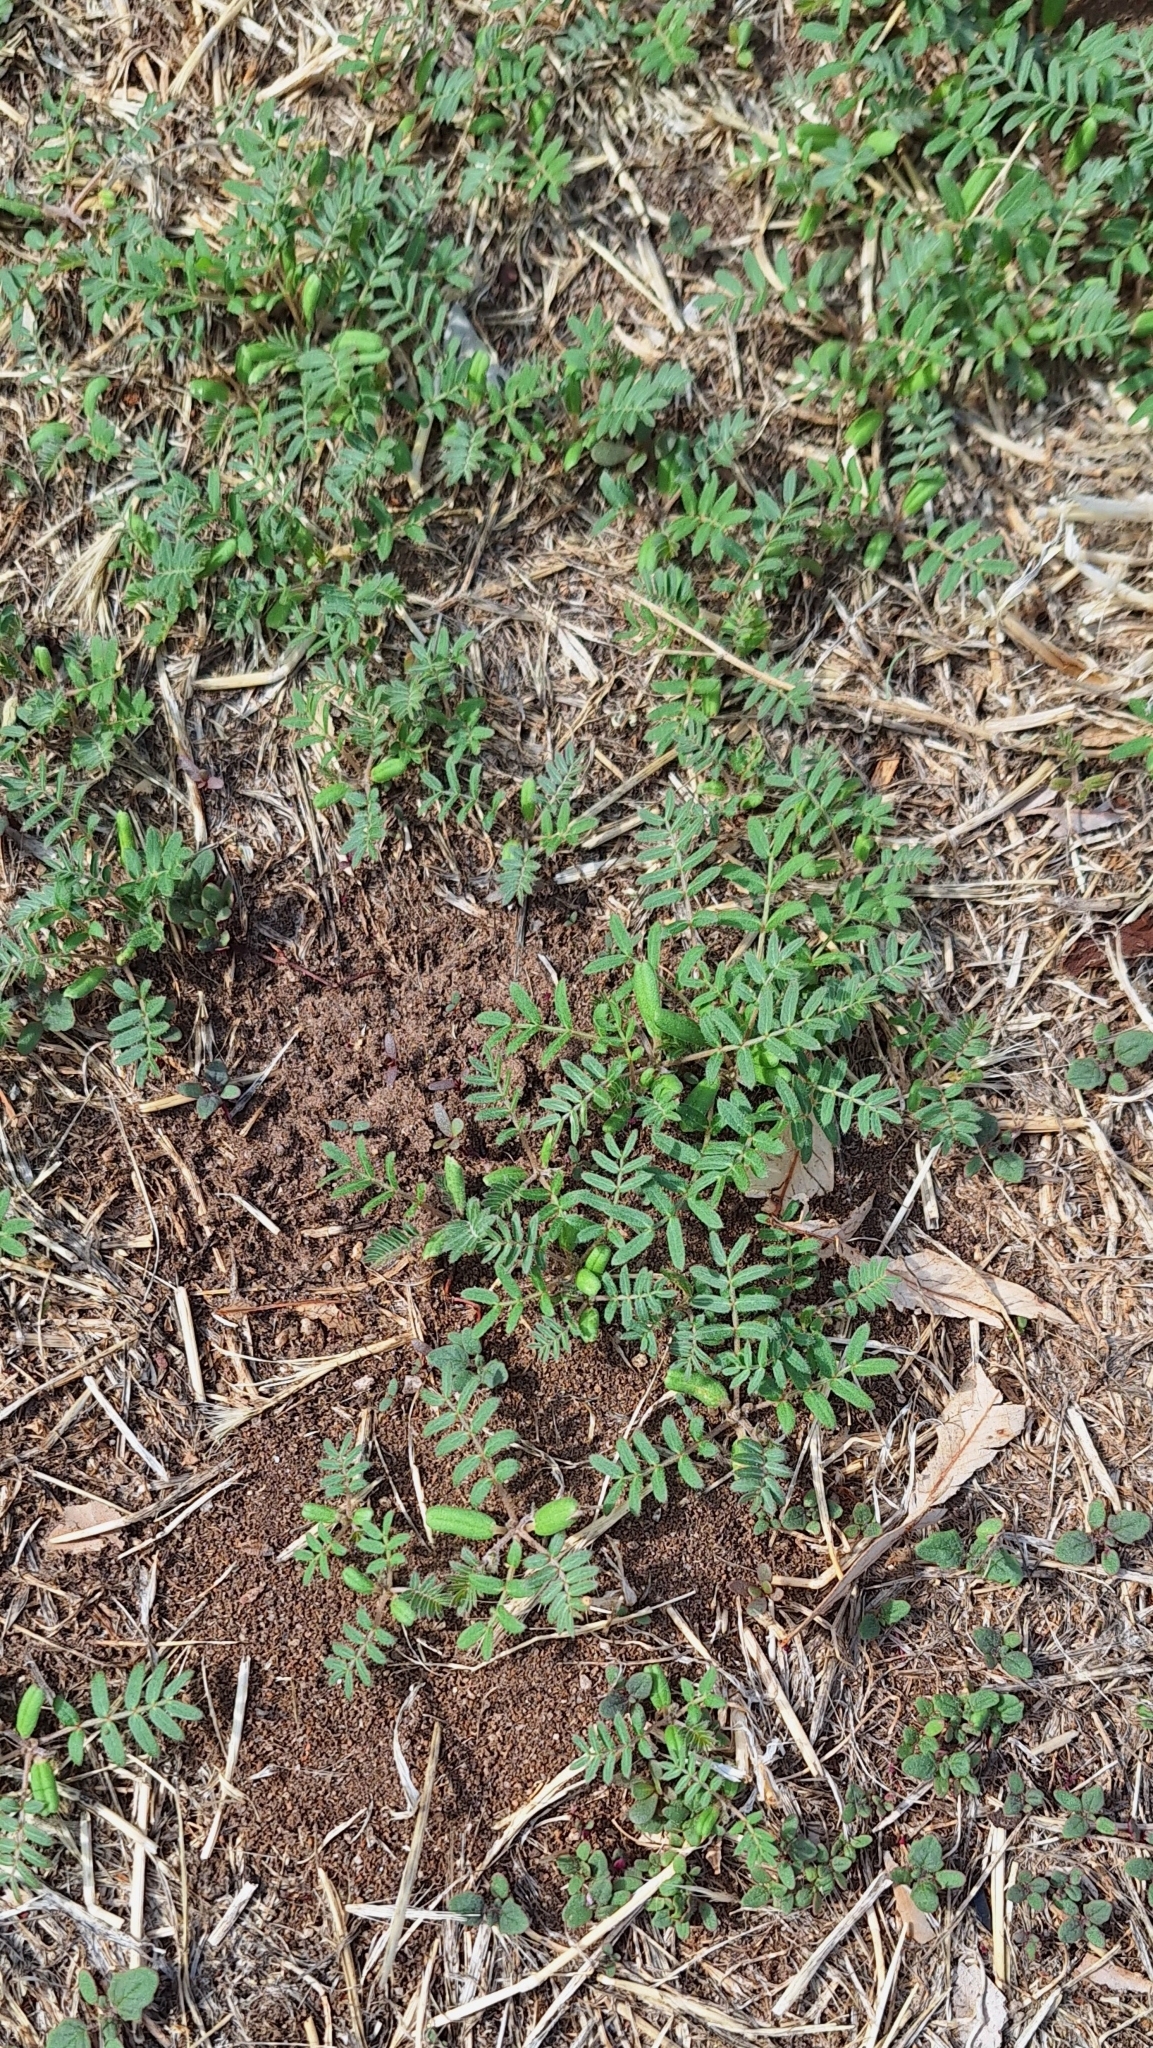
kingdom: Plantae
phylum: Tracheophyta
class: Magnoliopsida
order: Zygophyllales
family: Zygophyllaceae
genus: Tribulus
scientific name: Tribulus terrestris
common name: Puncturevine
